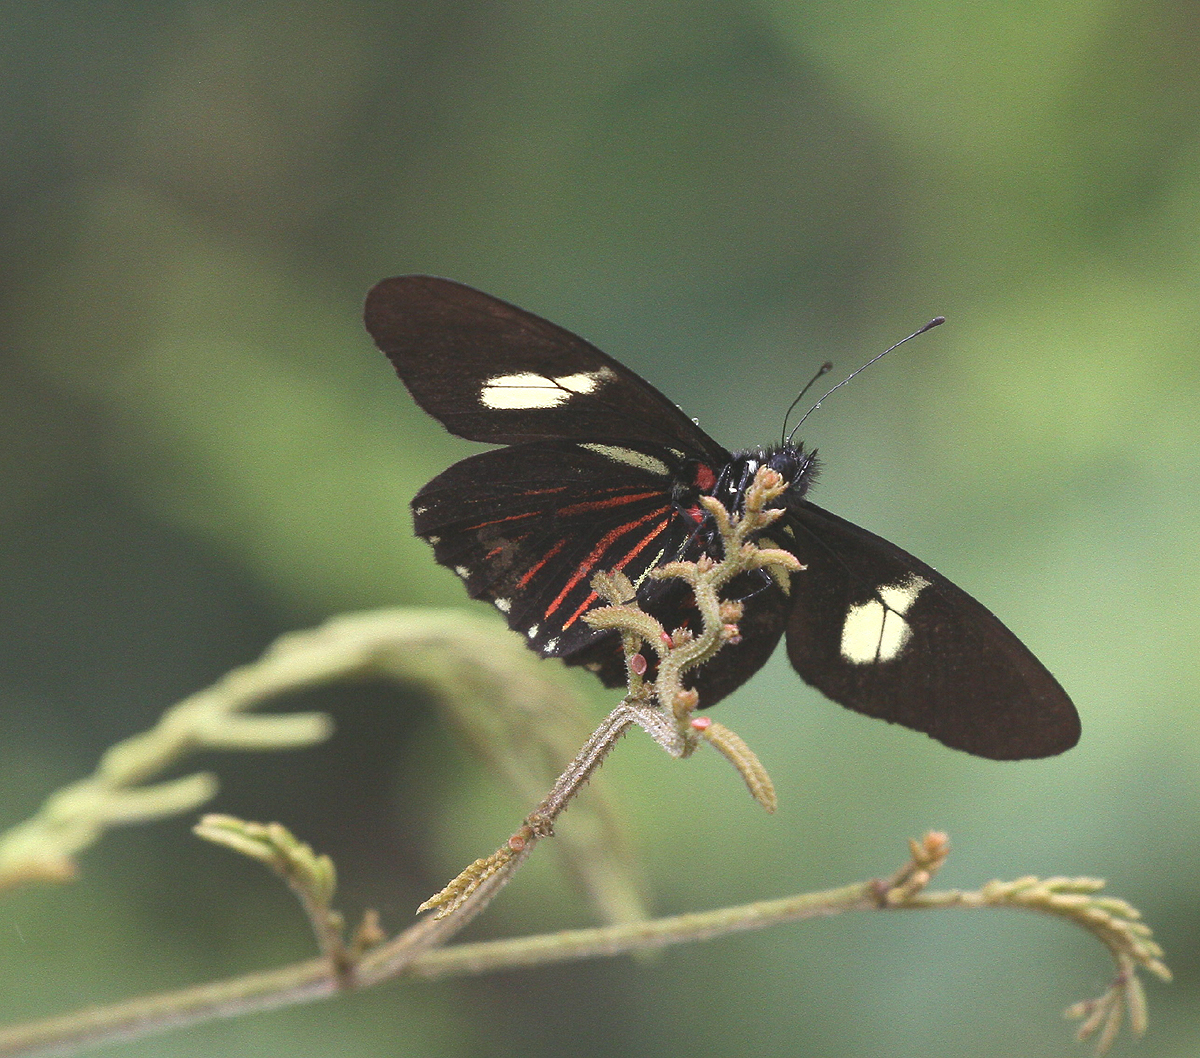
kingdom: Animalia
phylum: Arthropoda
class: Insecta
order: Lepidoptera
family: Pieridae
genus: Archonias
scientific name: Archonias brassolis
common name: Cattleheart white
